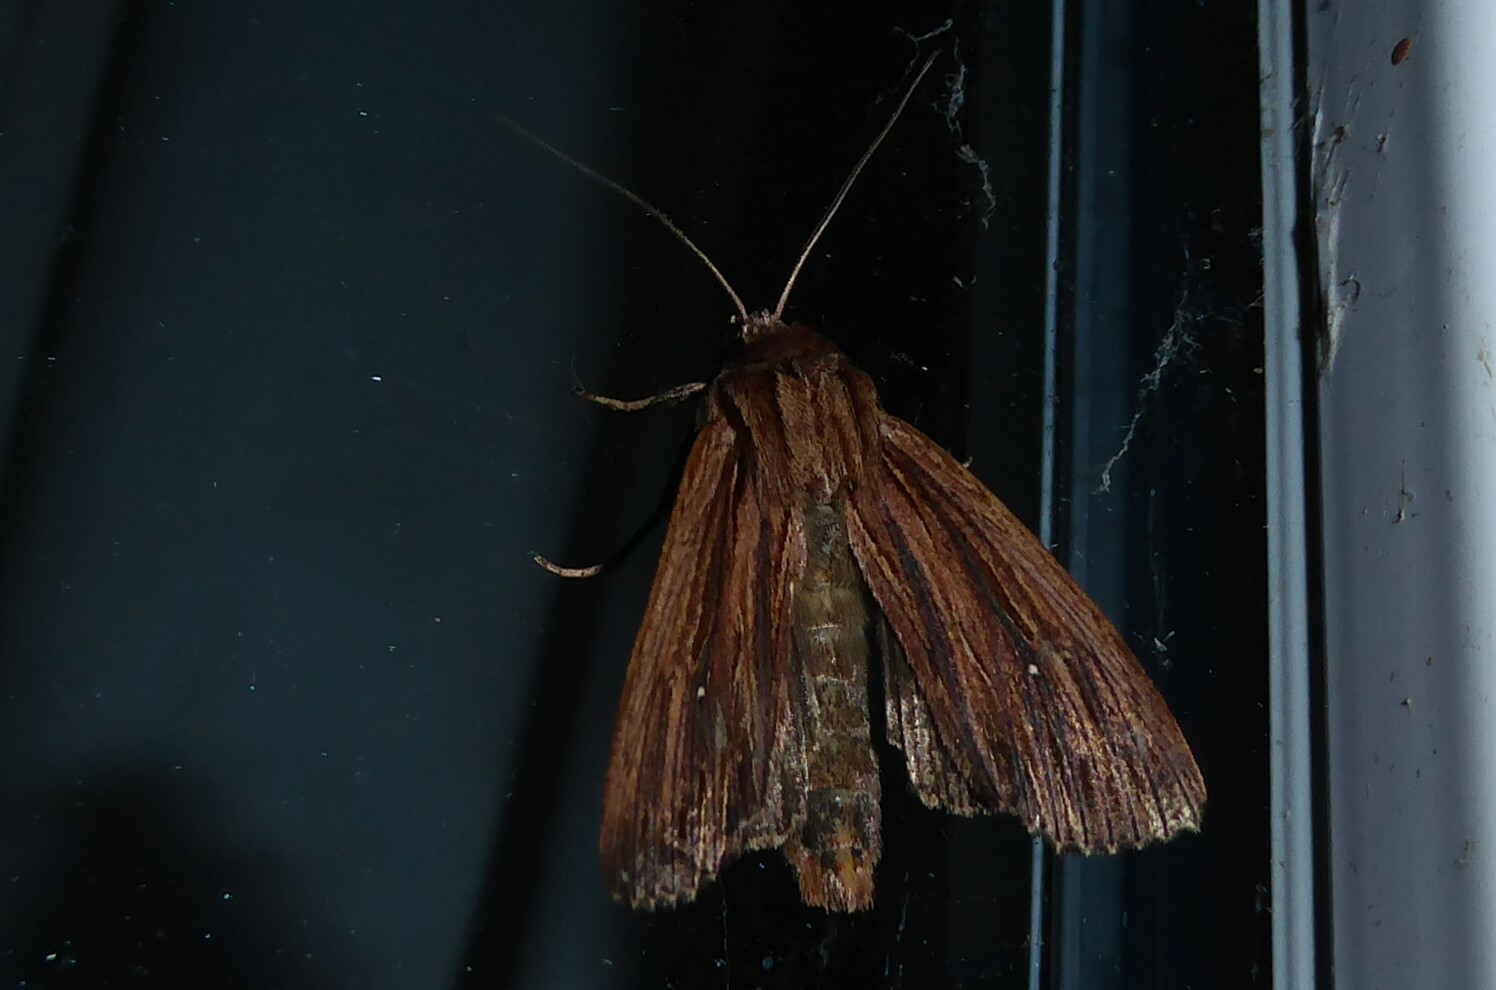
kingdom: Animalia
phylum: Arthropoda
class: Insecta
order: Lepidoptera
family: Noctuidae
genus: Ichneutica
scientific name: Ichneutica
